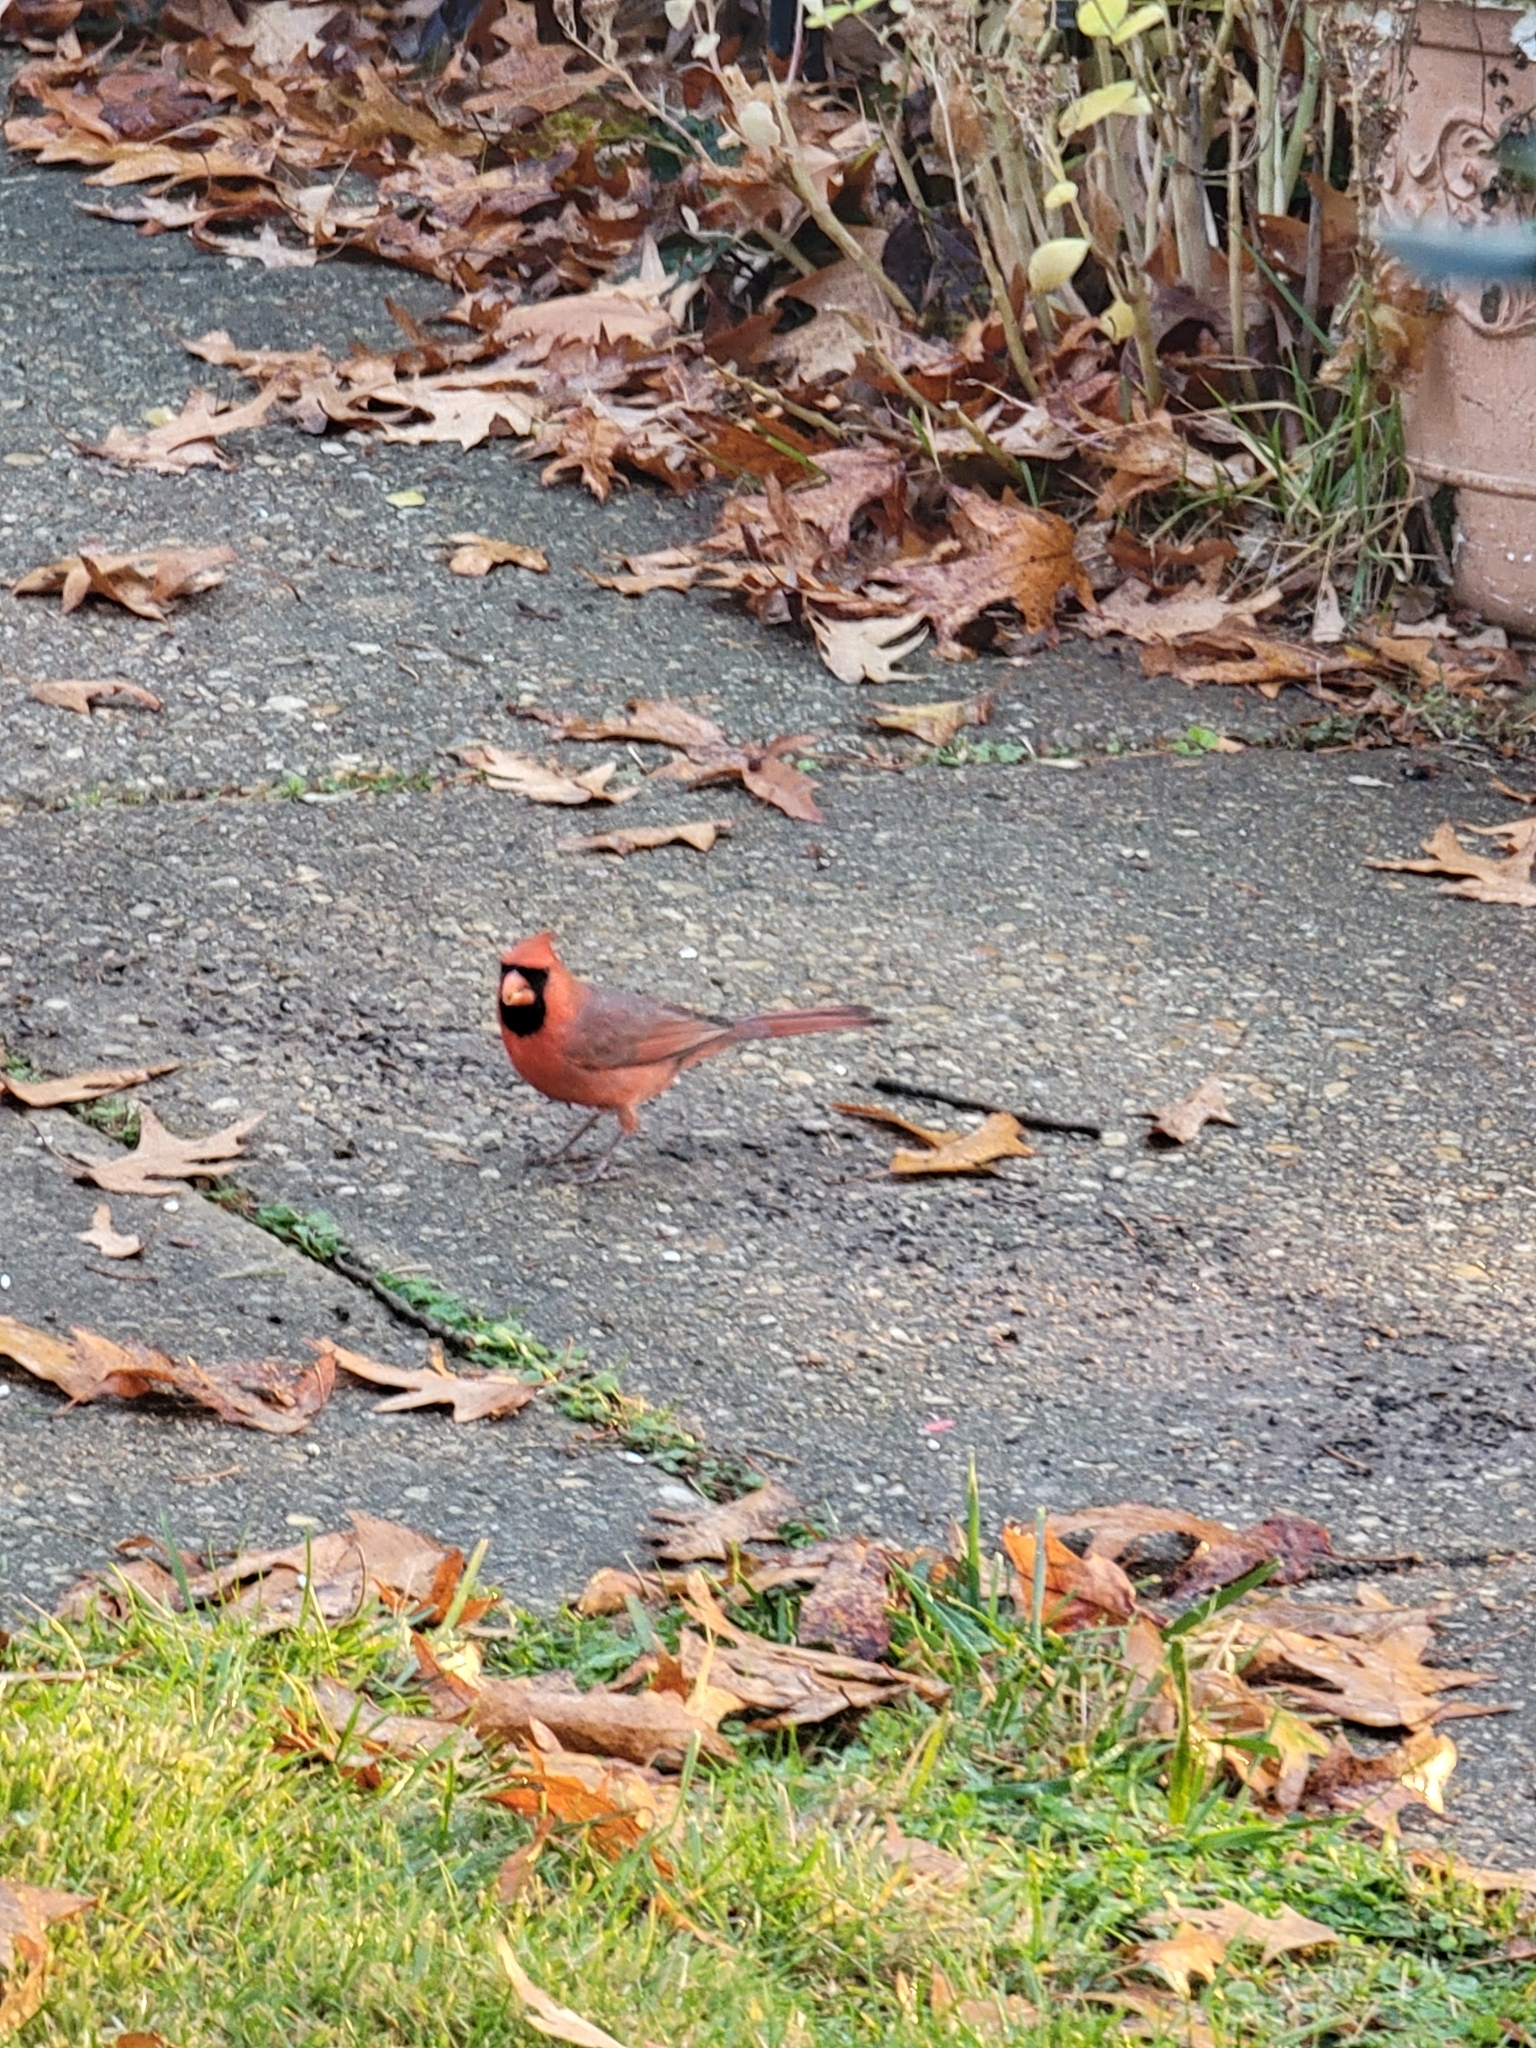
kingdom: Animalia
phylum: Chordata
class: Aves
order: Passeriformes
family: Cardinalidae
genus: Cardinalis
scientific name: Cardinalis cardinalis
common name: Northern cardinal
